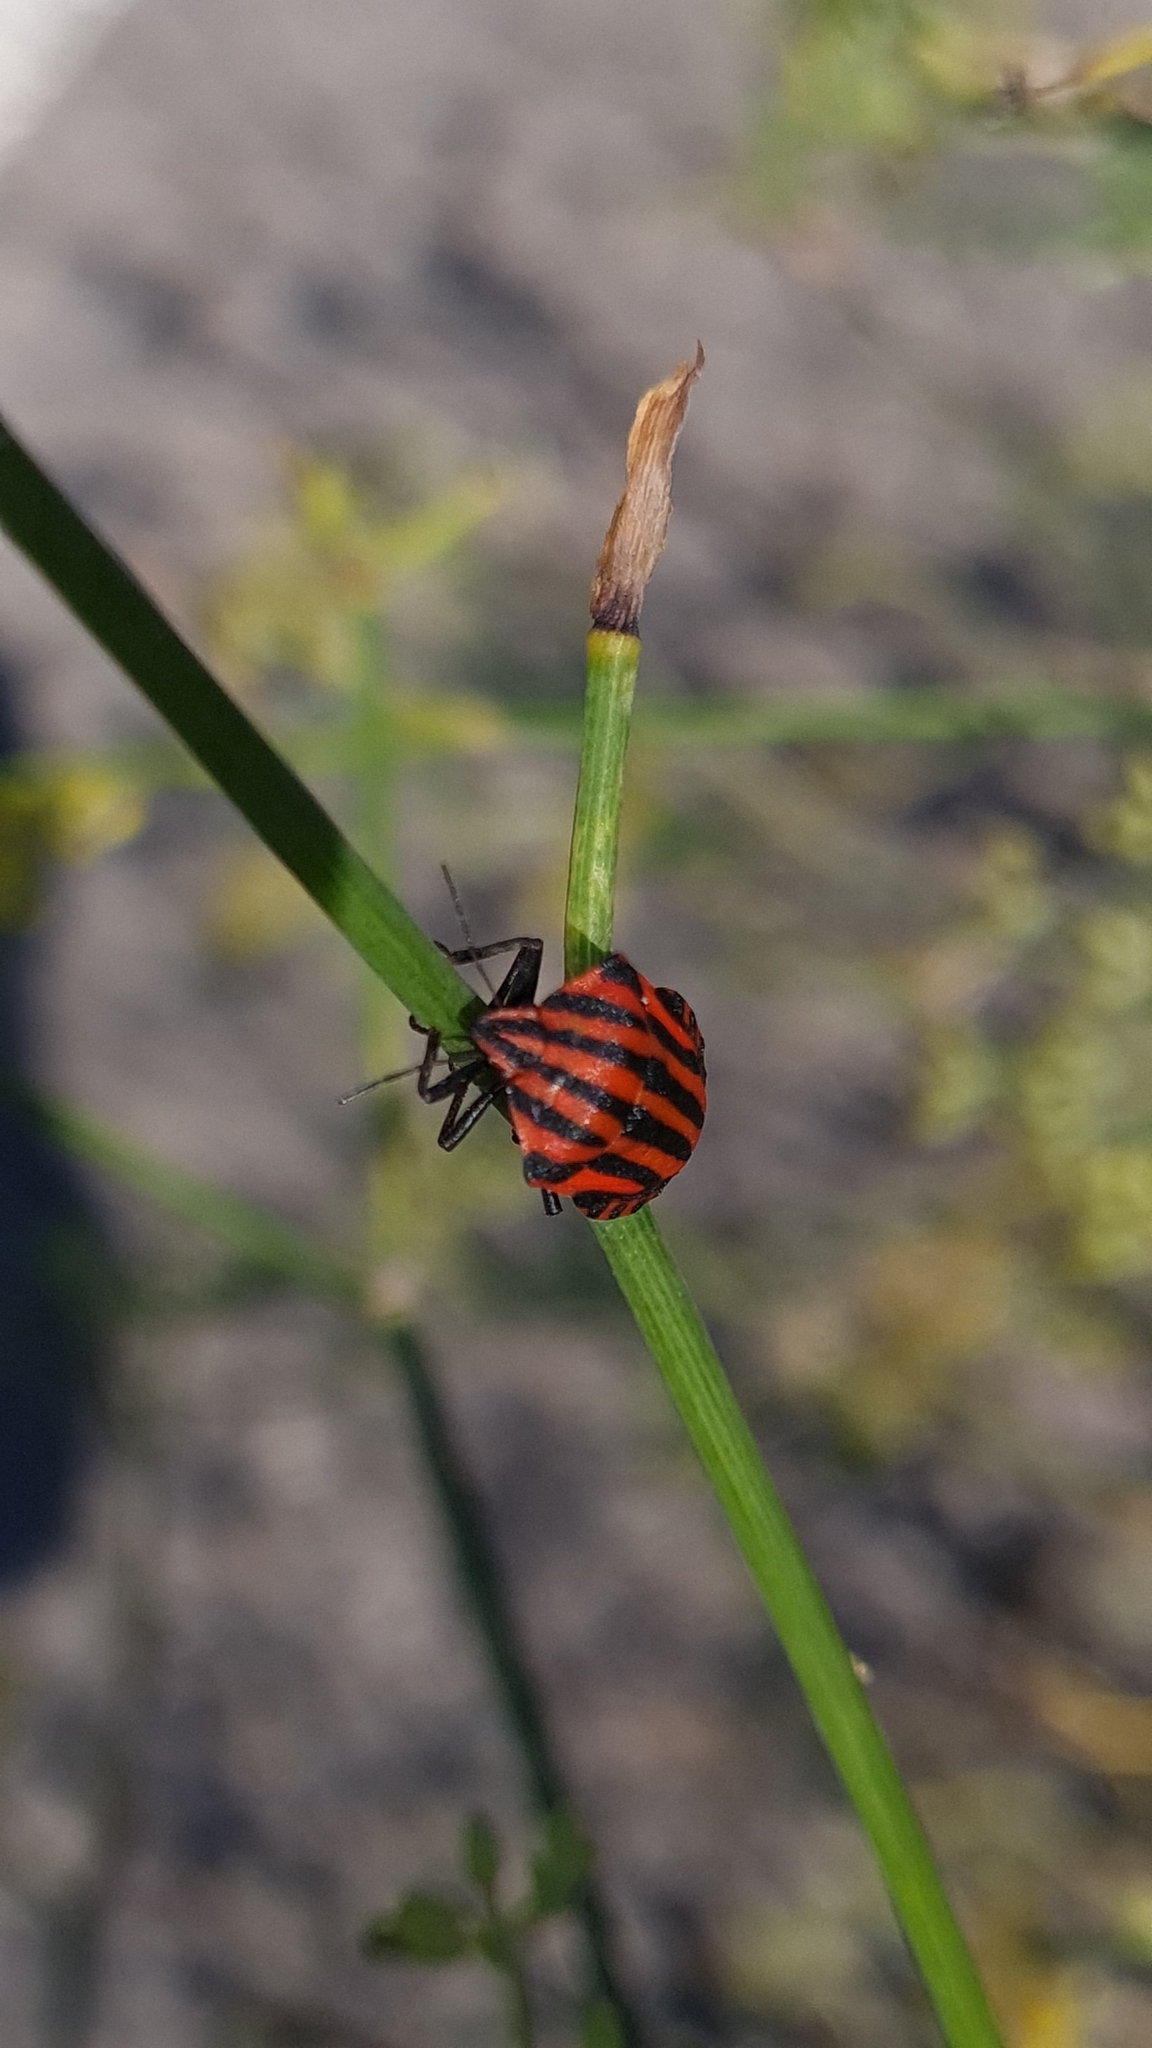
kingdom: Animalia
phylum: Arthropoda
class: Insecta
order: Hemiptera
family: Pentatomidae
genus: Graphosoma
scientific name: Graphosoma italicum
